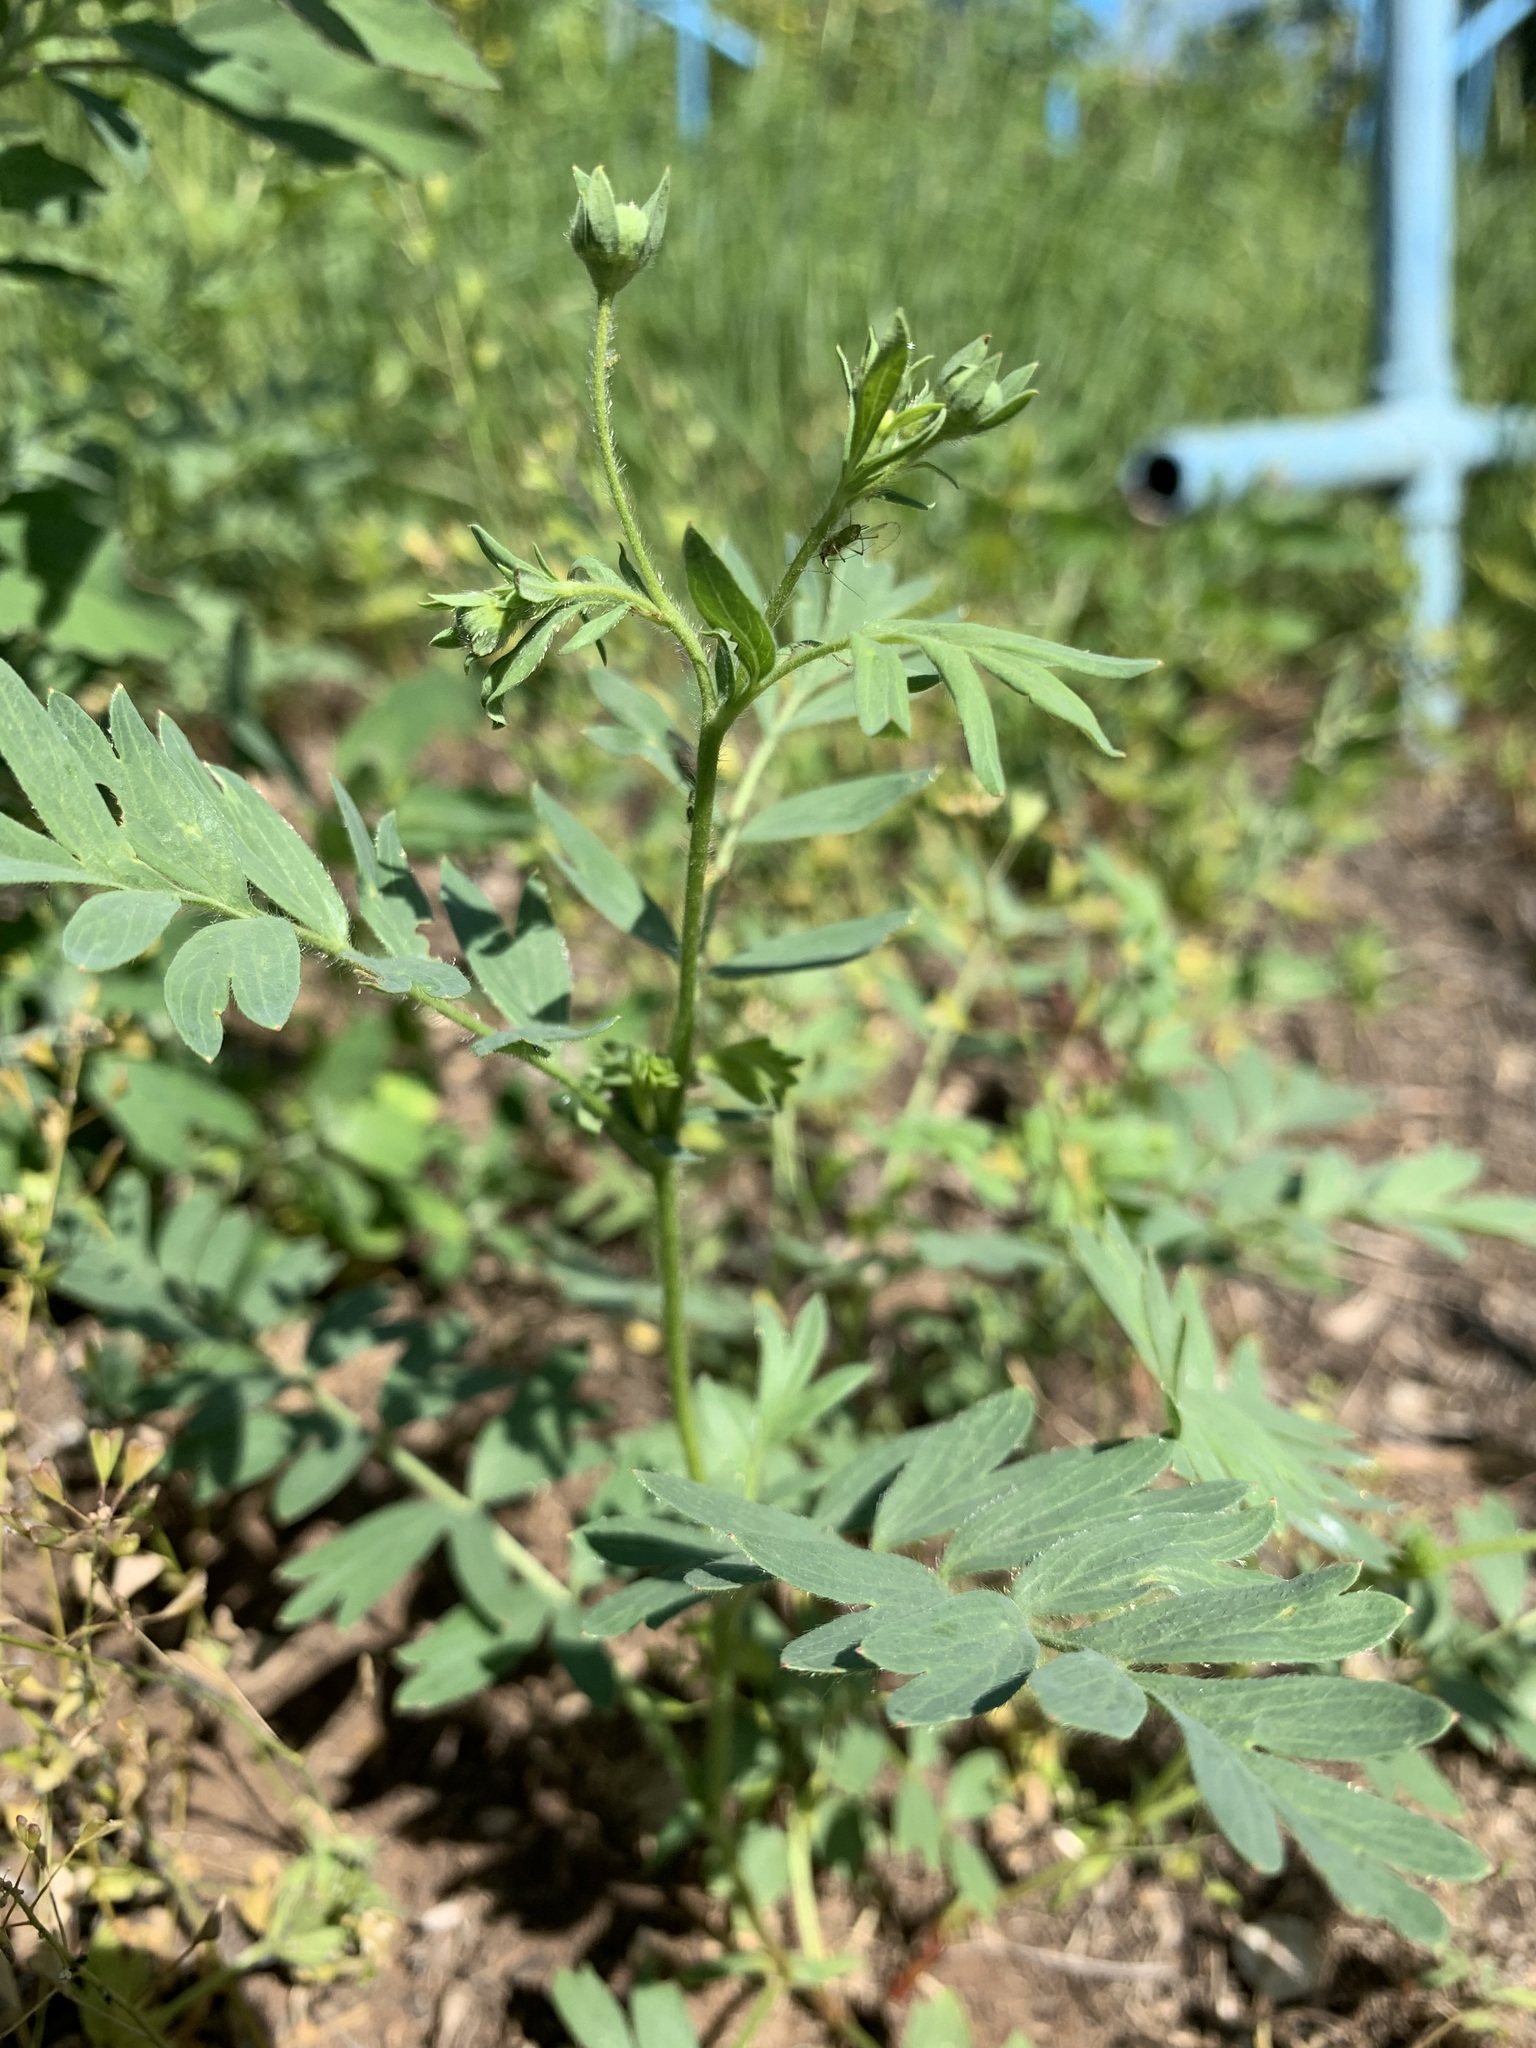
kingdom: Plantae
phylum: Tracheophyta
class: Magnoliopsida
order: Rosales
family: Rosaceae
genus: Sibbaldianthe
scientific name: Sibbaldianthe bifurca
